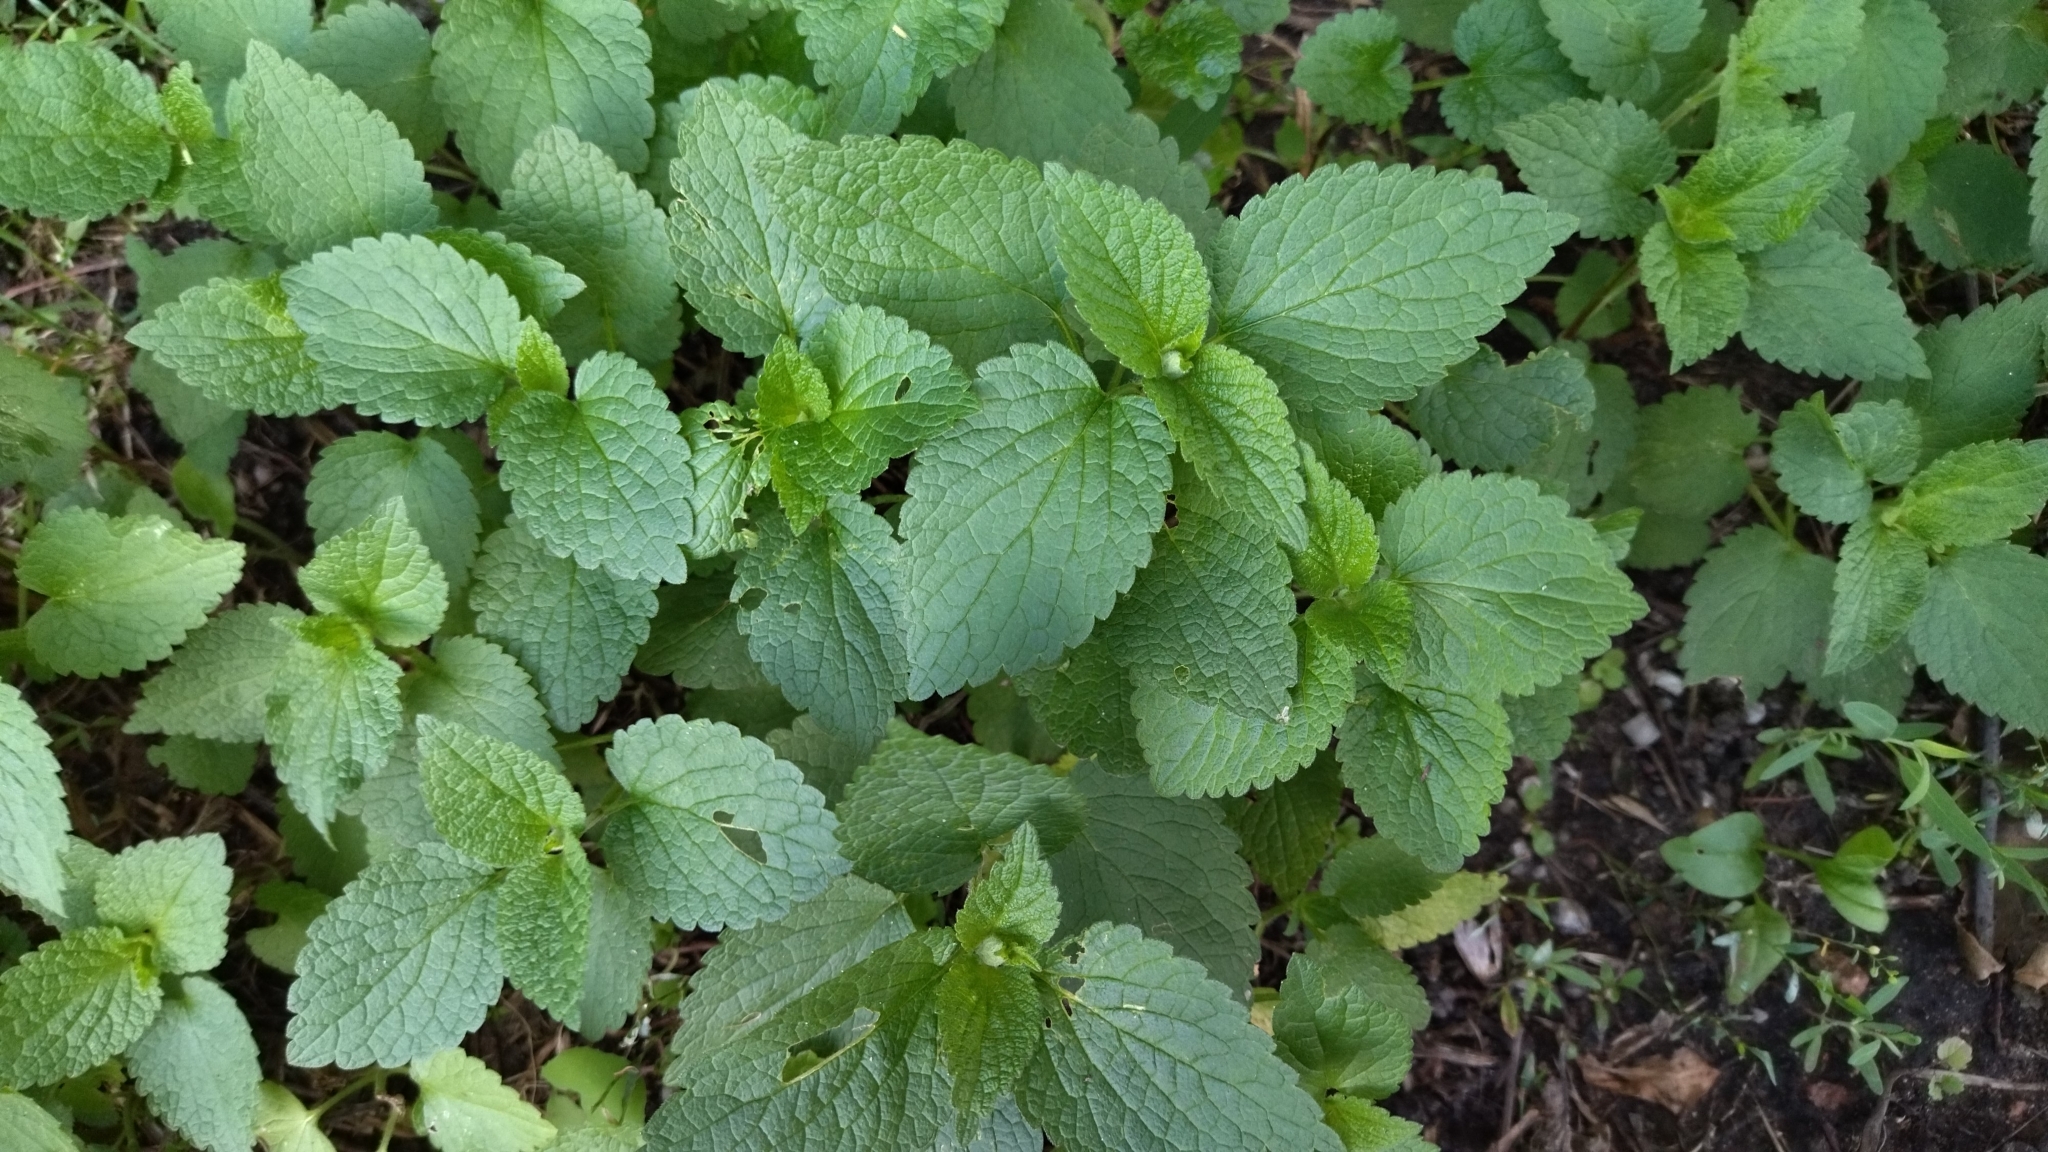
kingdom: Plantae
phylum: Tracheophyta
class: Magnoliopsida
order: Lamiales
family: Lamiaceae
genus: Lamium
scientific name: Lamium album
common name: White dead-nettle
